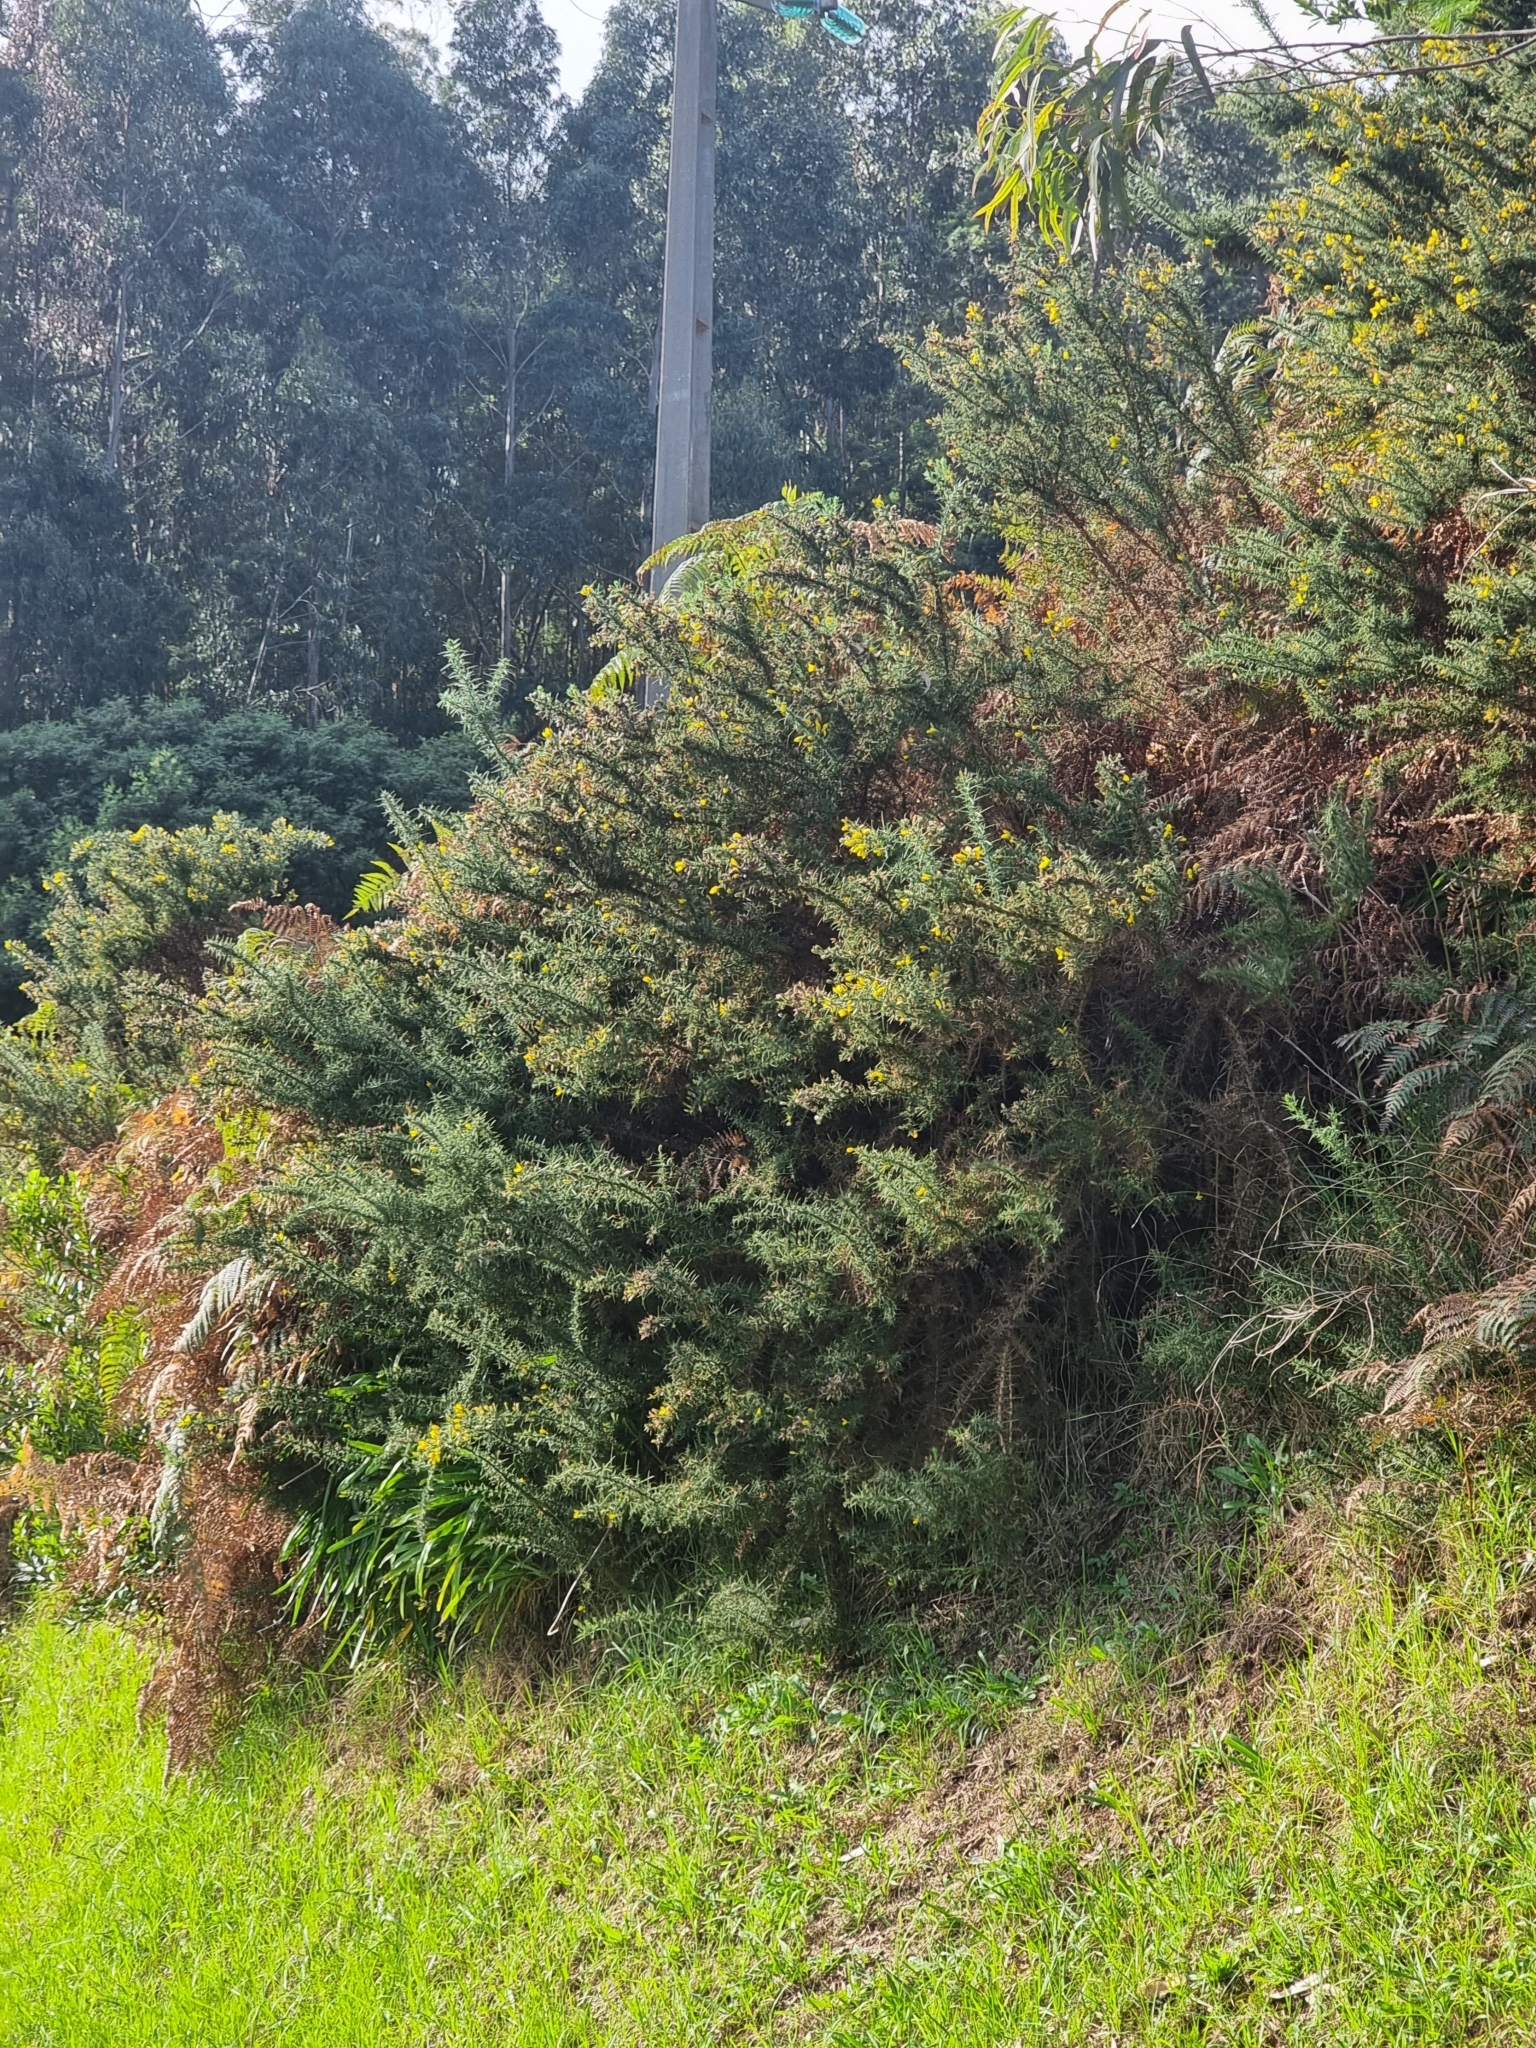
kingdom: Plantae
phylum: Tracheophyta
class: Magnoliopsida
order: Fabales
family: Fabaceae
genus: Ulex
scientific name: Ulex europaeus
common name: Common gorse
